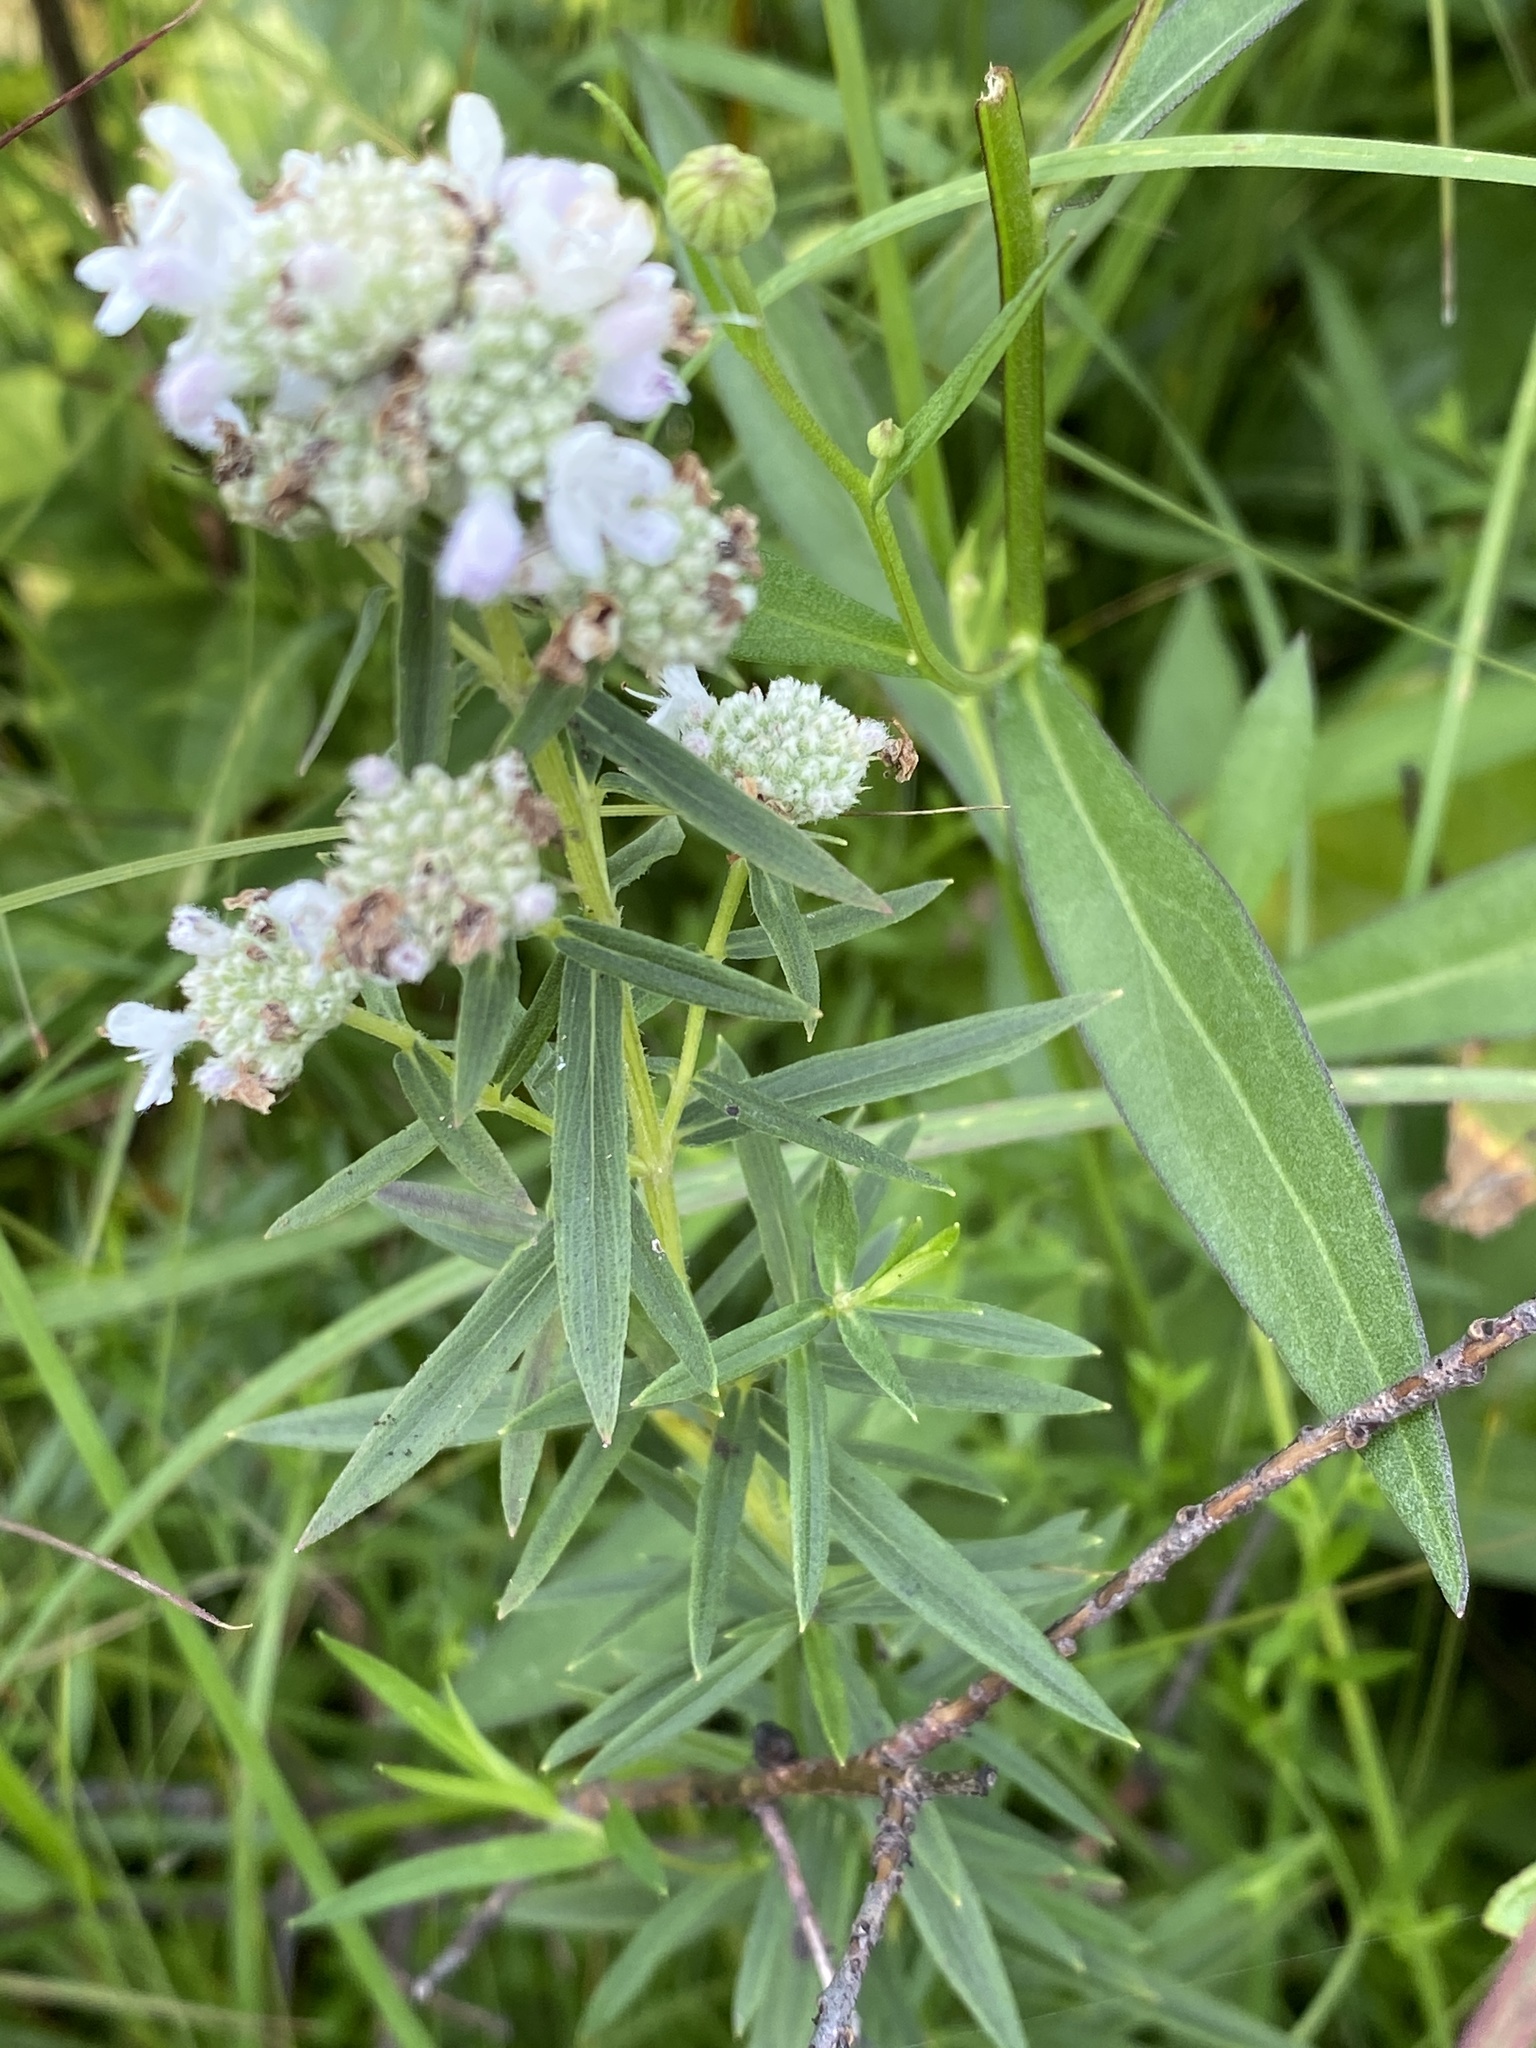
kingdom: Plantae
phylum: Tracheophyta
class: Magnoliopsida
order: Lamiales
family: Lamiaceae
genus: Pycnanthemum
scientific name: Pycnanthemum virginianum
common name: Virginia mountain-mint
